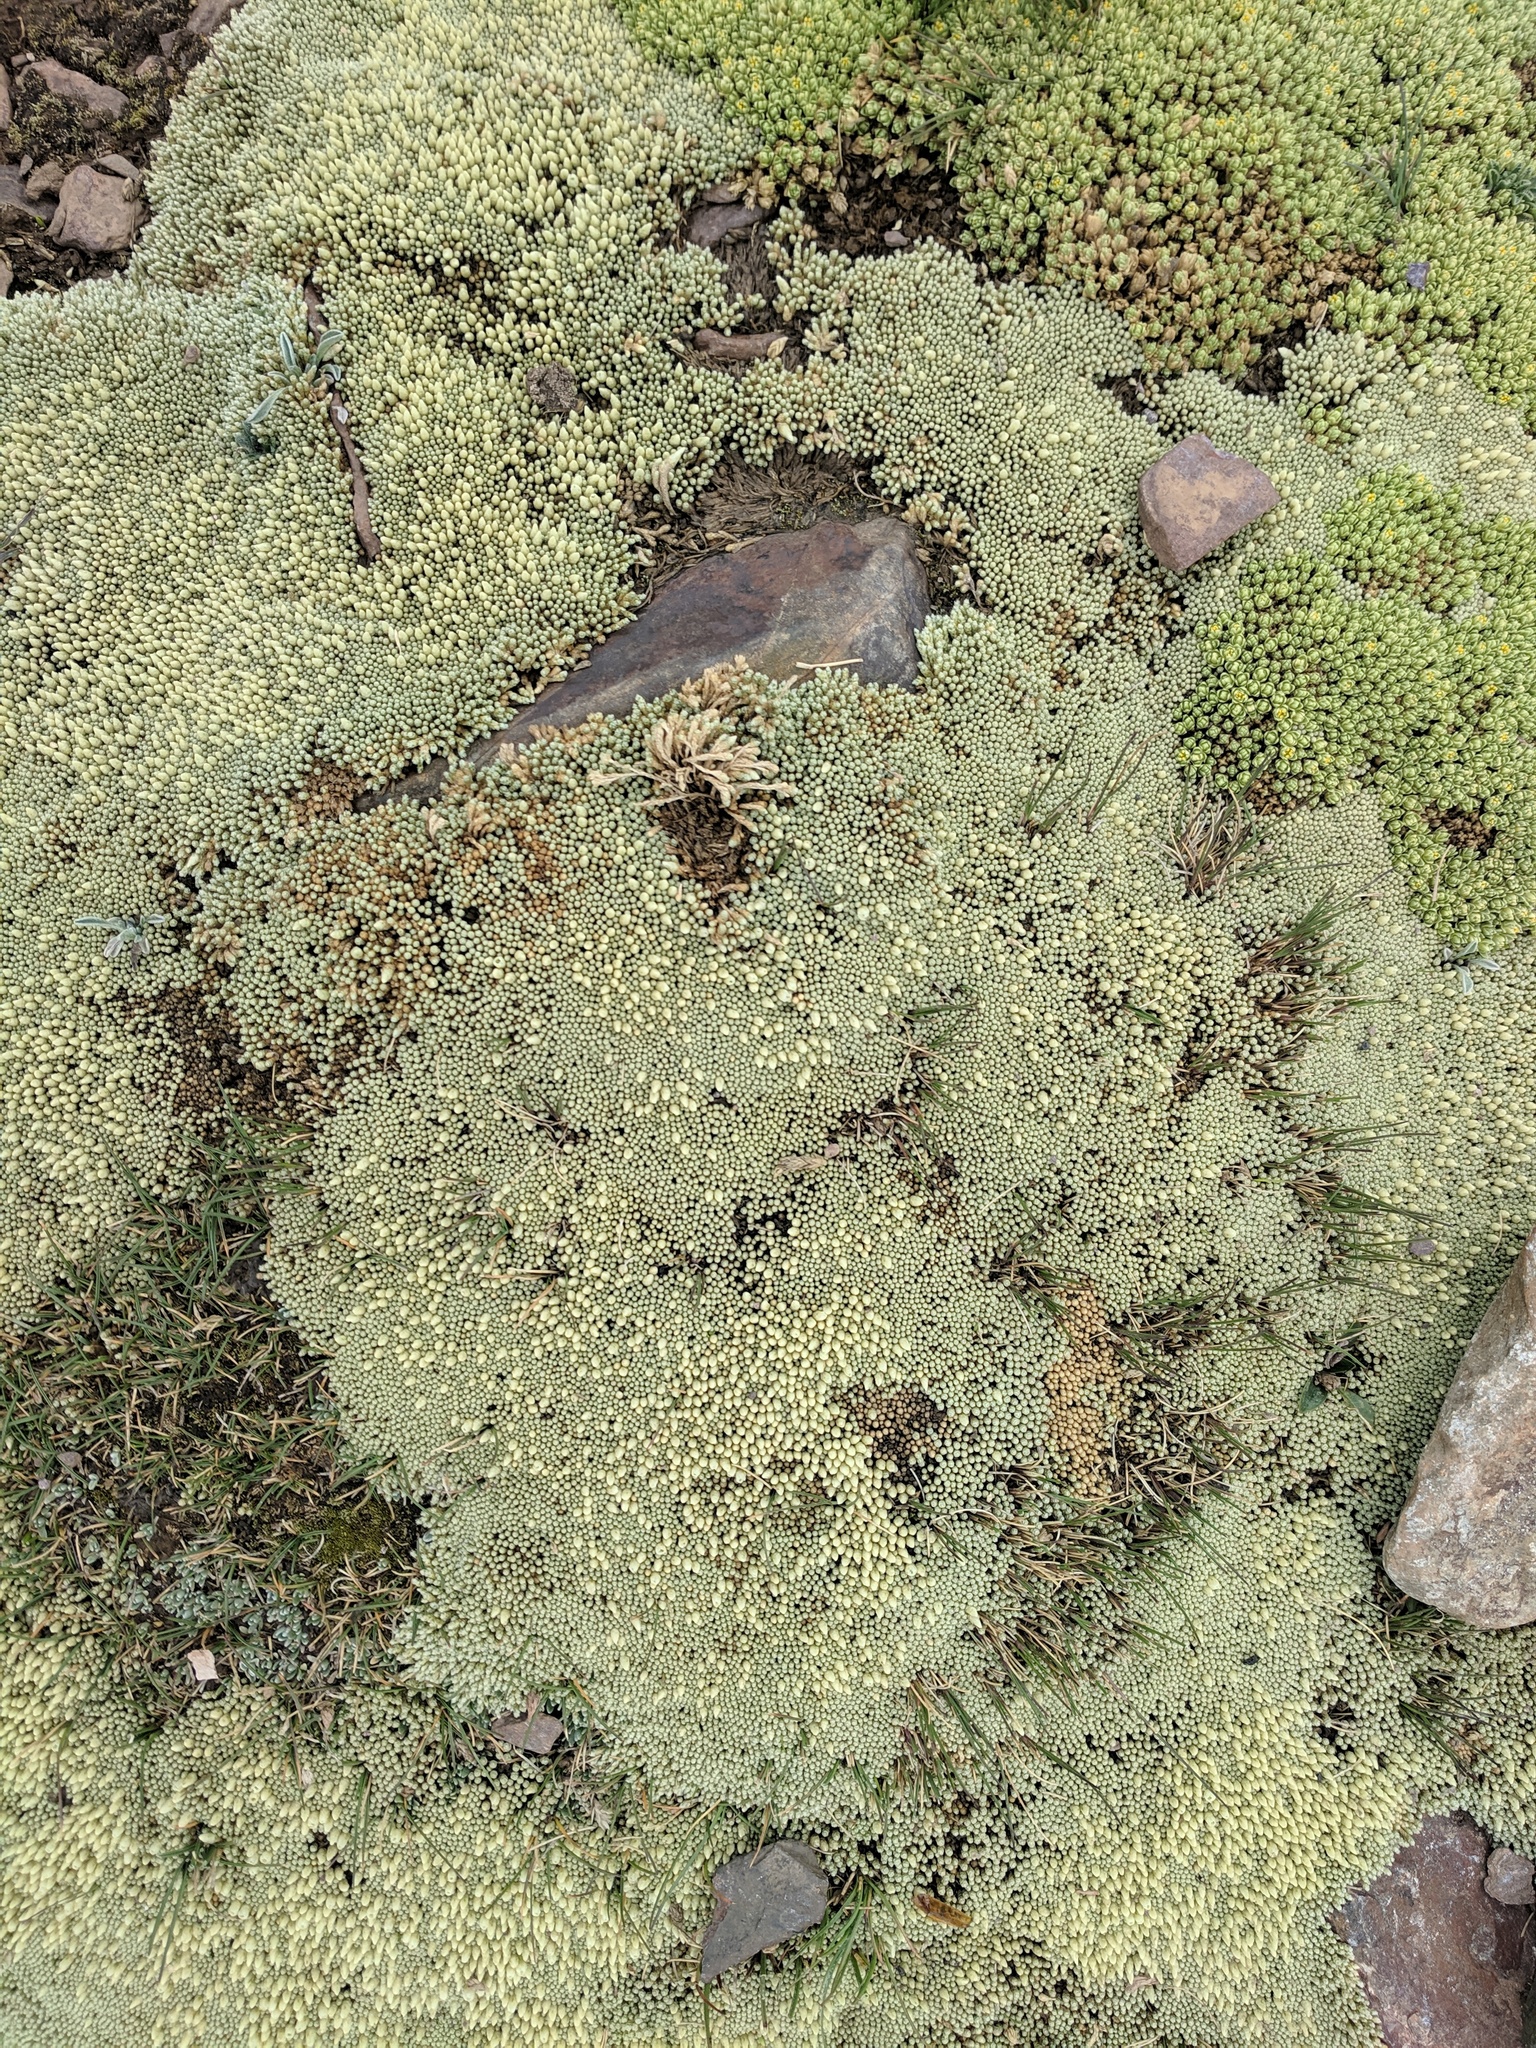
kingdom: Plantae
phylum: Tracheophyta
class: Magnoliopsida
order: Caryophyllales
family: Caryophyllaceae
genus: Pycnophyllum
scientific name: Pycnophyllum molle
